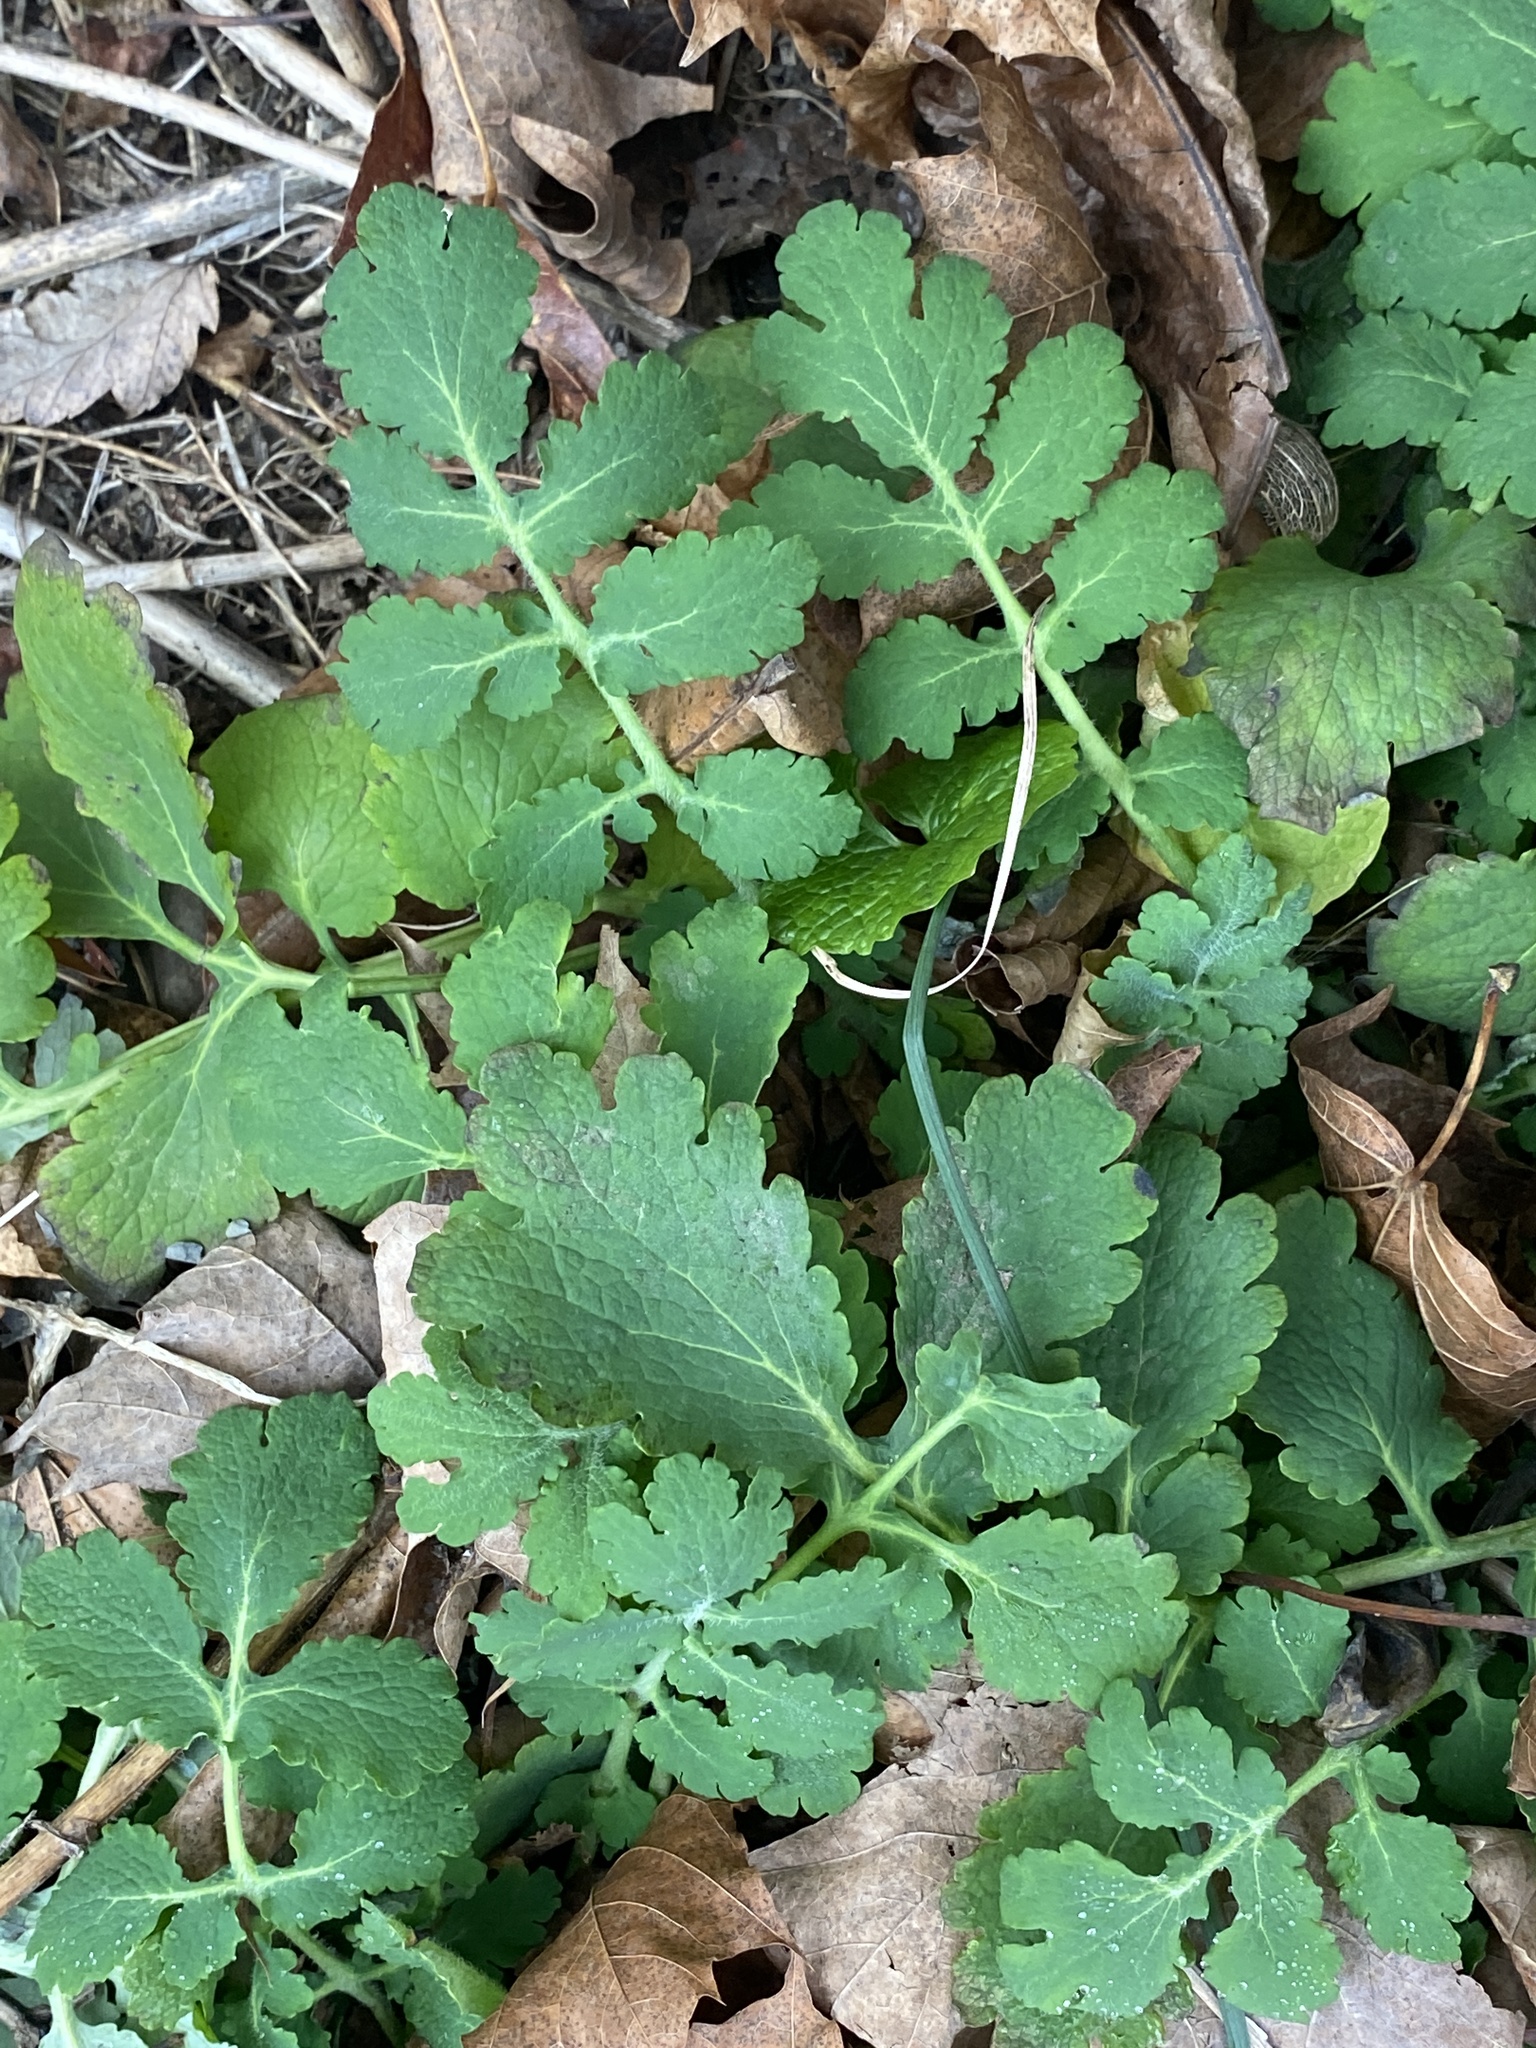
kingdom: Plantae
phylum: Tracheophyta
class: Magnoliopsida
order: Ranunculales
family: Papaveraceae
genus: Chelidonium
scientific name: Chelidonium majus
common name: Greater celandine
